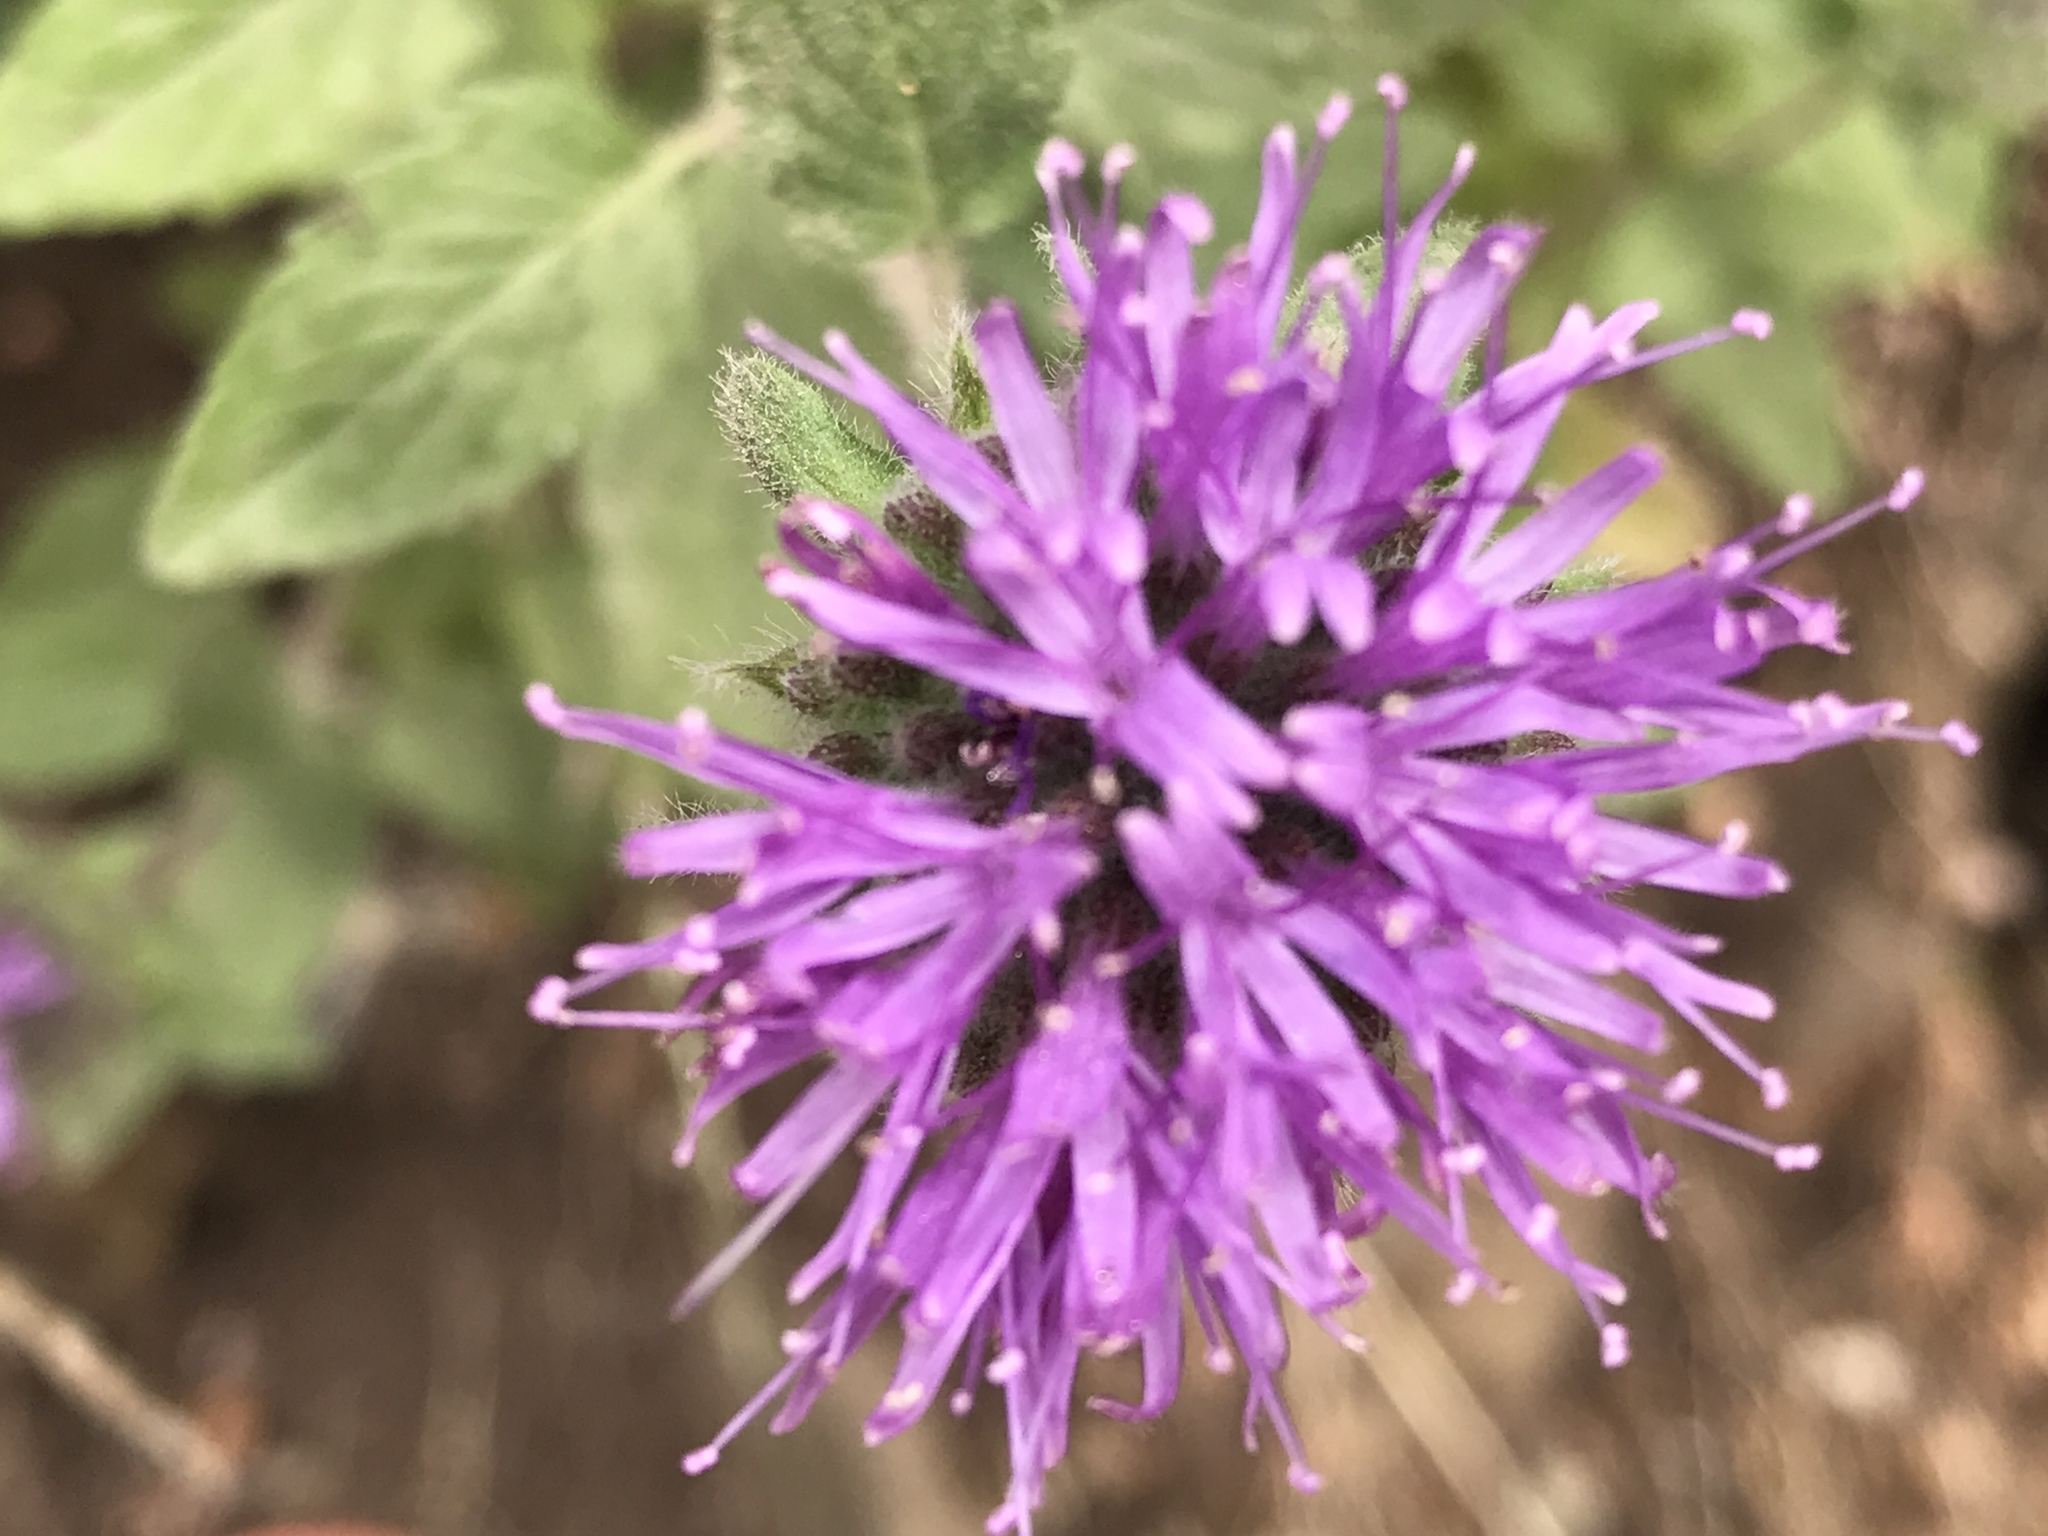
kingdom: Plantae
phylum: Tracheophyta
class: Magnoliopsida
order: Lamiales
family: Lamiaceae
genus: Monardella
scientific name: Monardella odoratissima
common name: Pacific monardella
